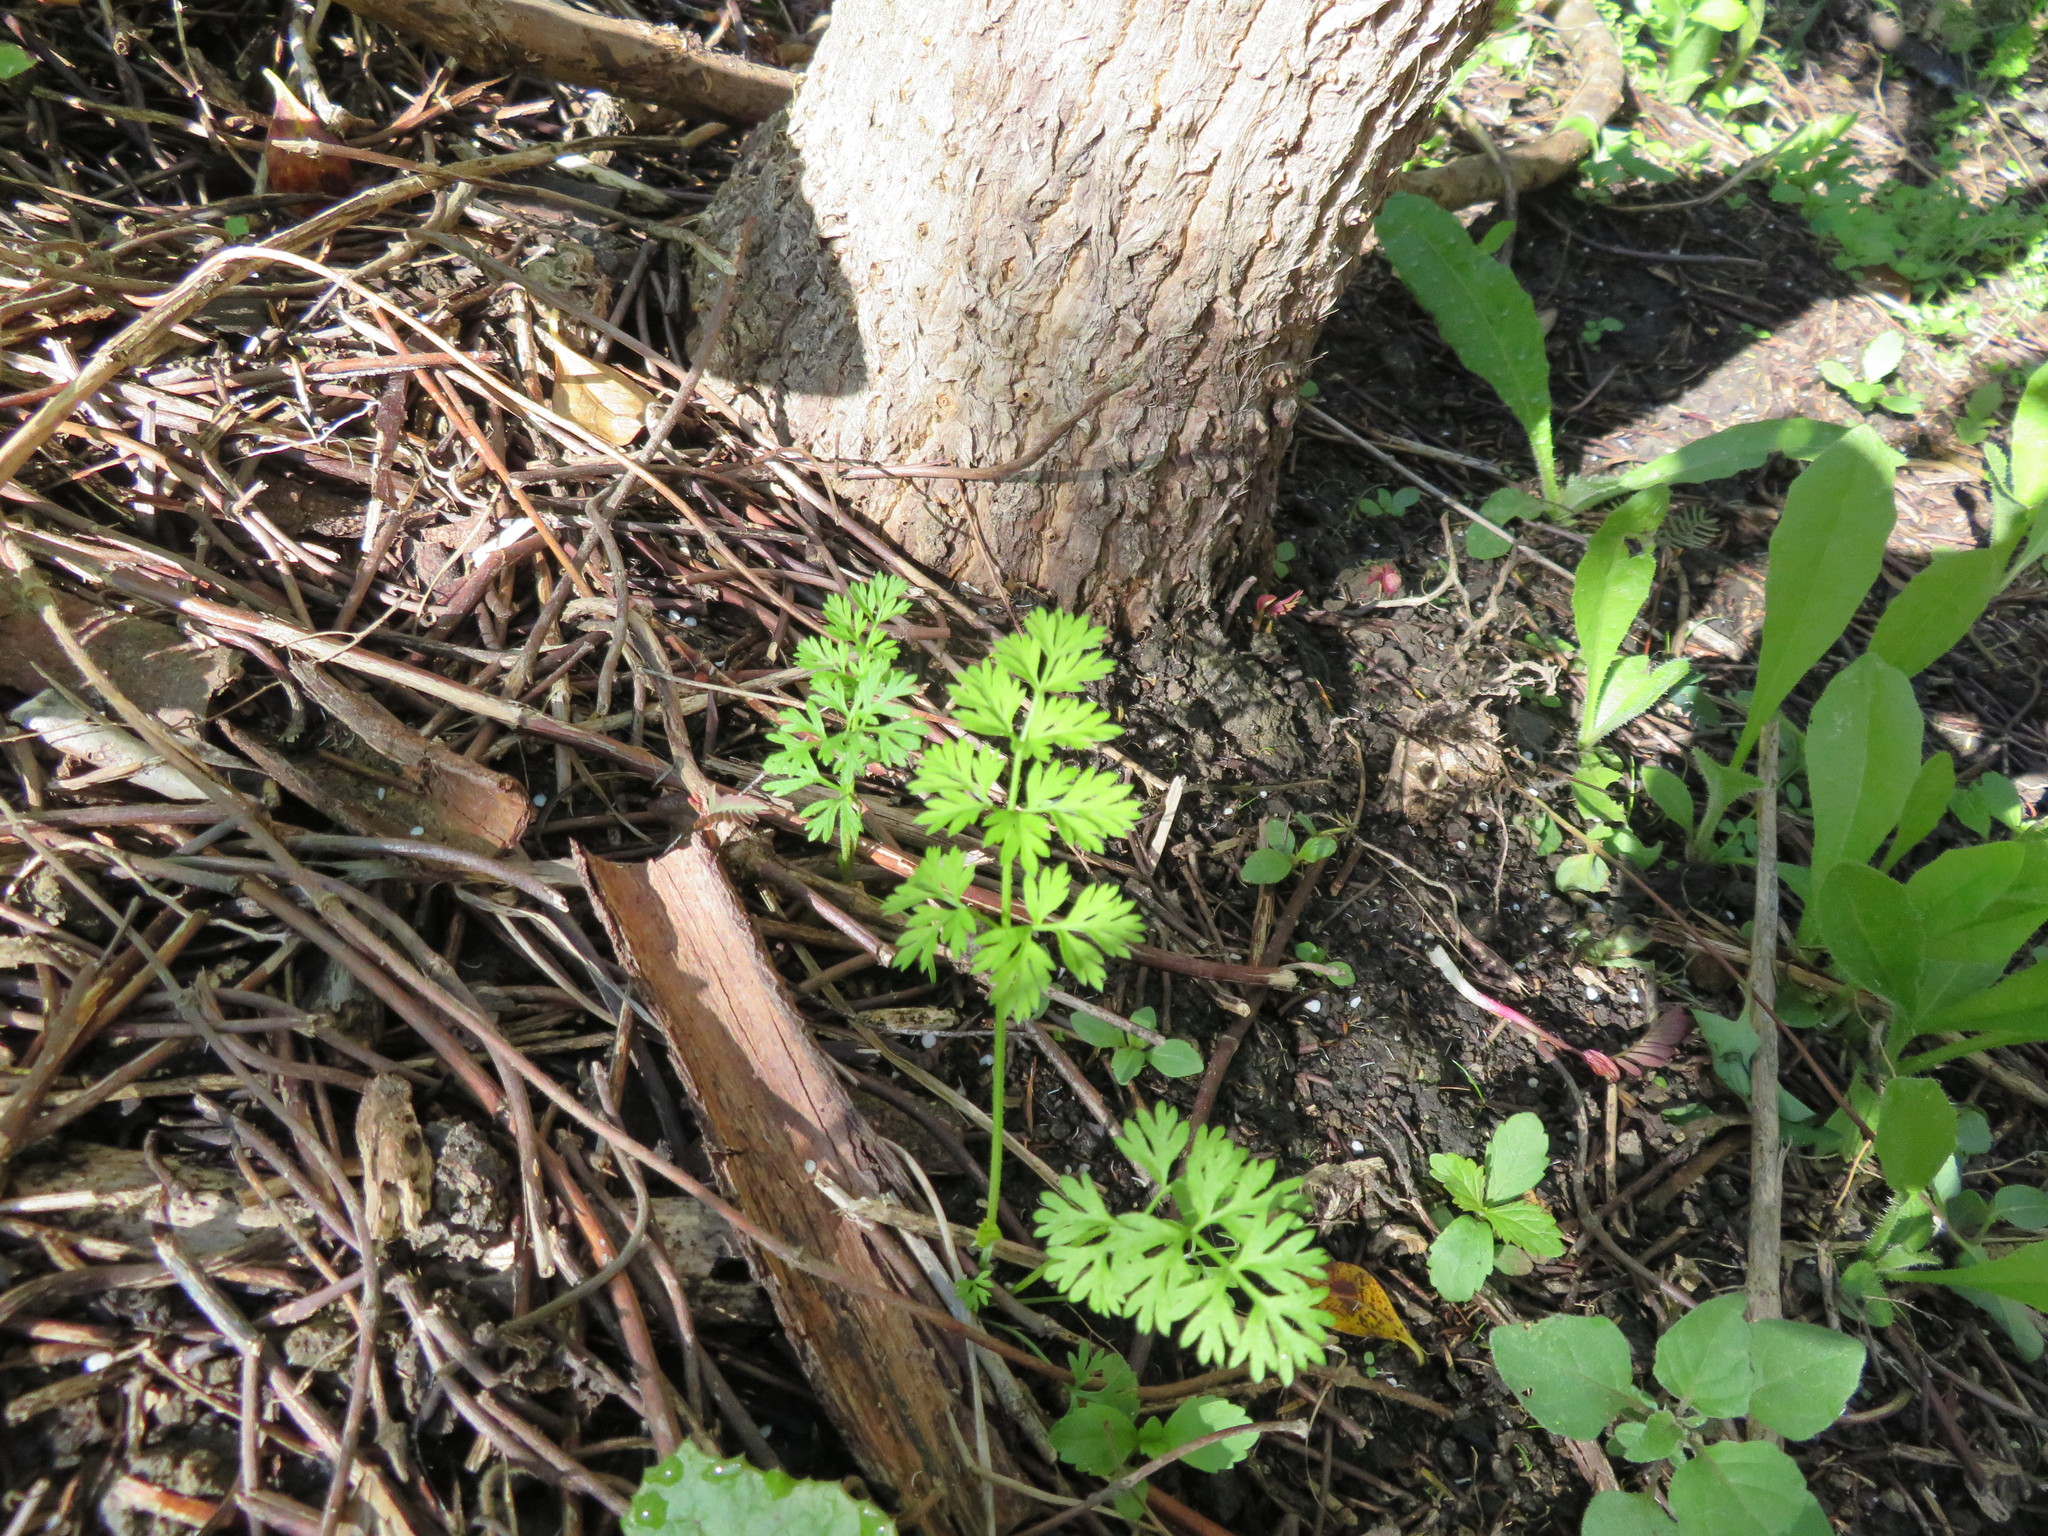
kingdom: Plantae
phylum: Tracheophyta
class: Magnoliopsida
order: Apiales
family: Apiaceae
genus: Daucus
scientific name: Daucus carota
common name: Wild carrot
